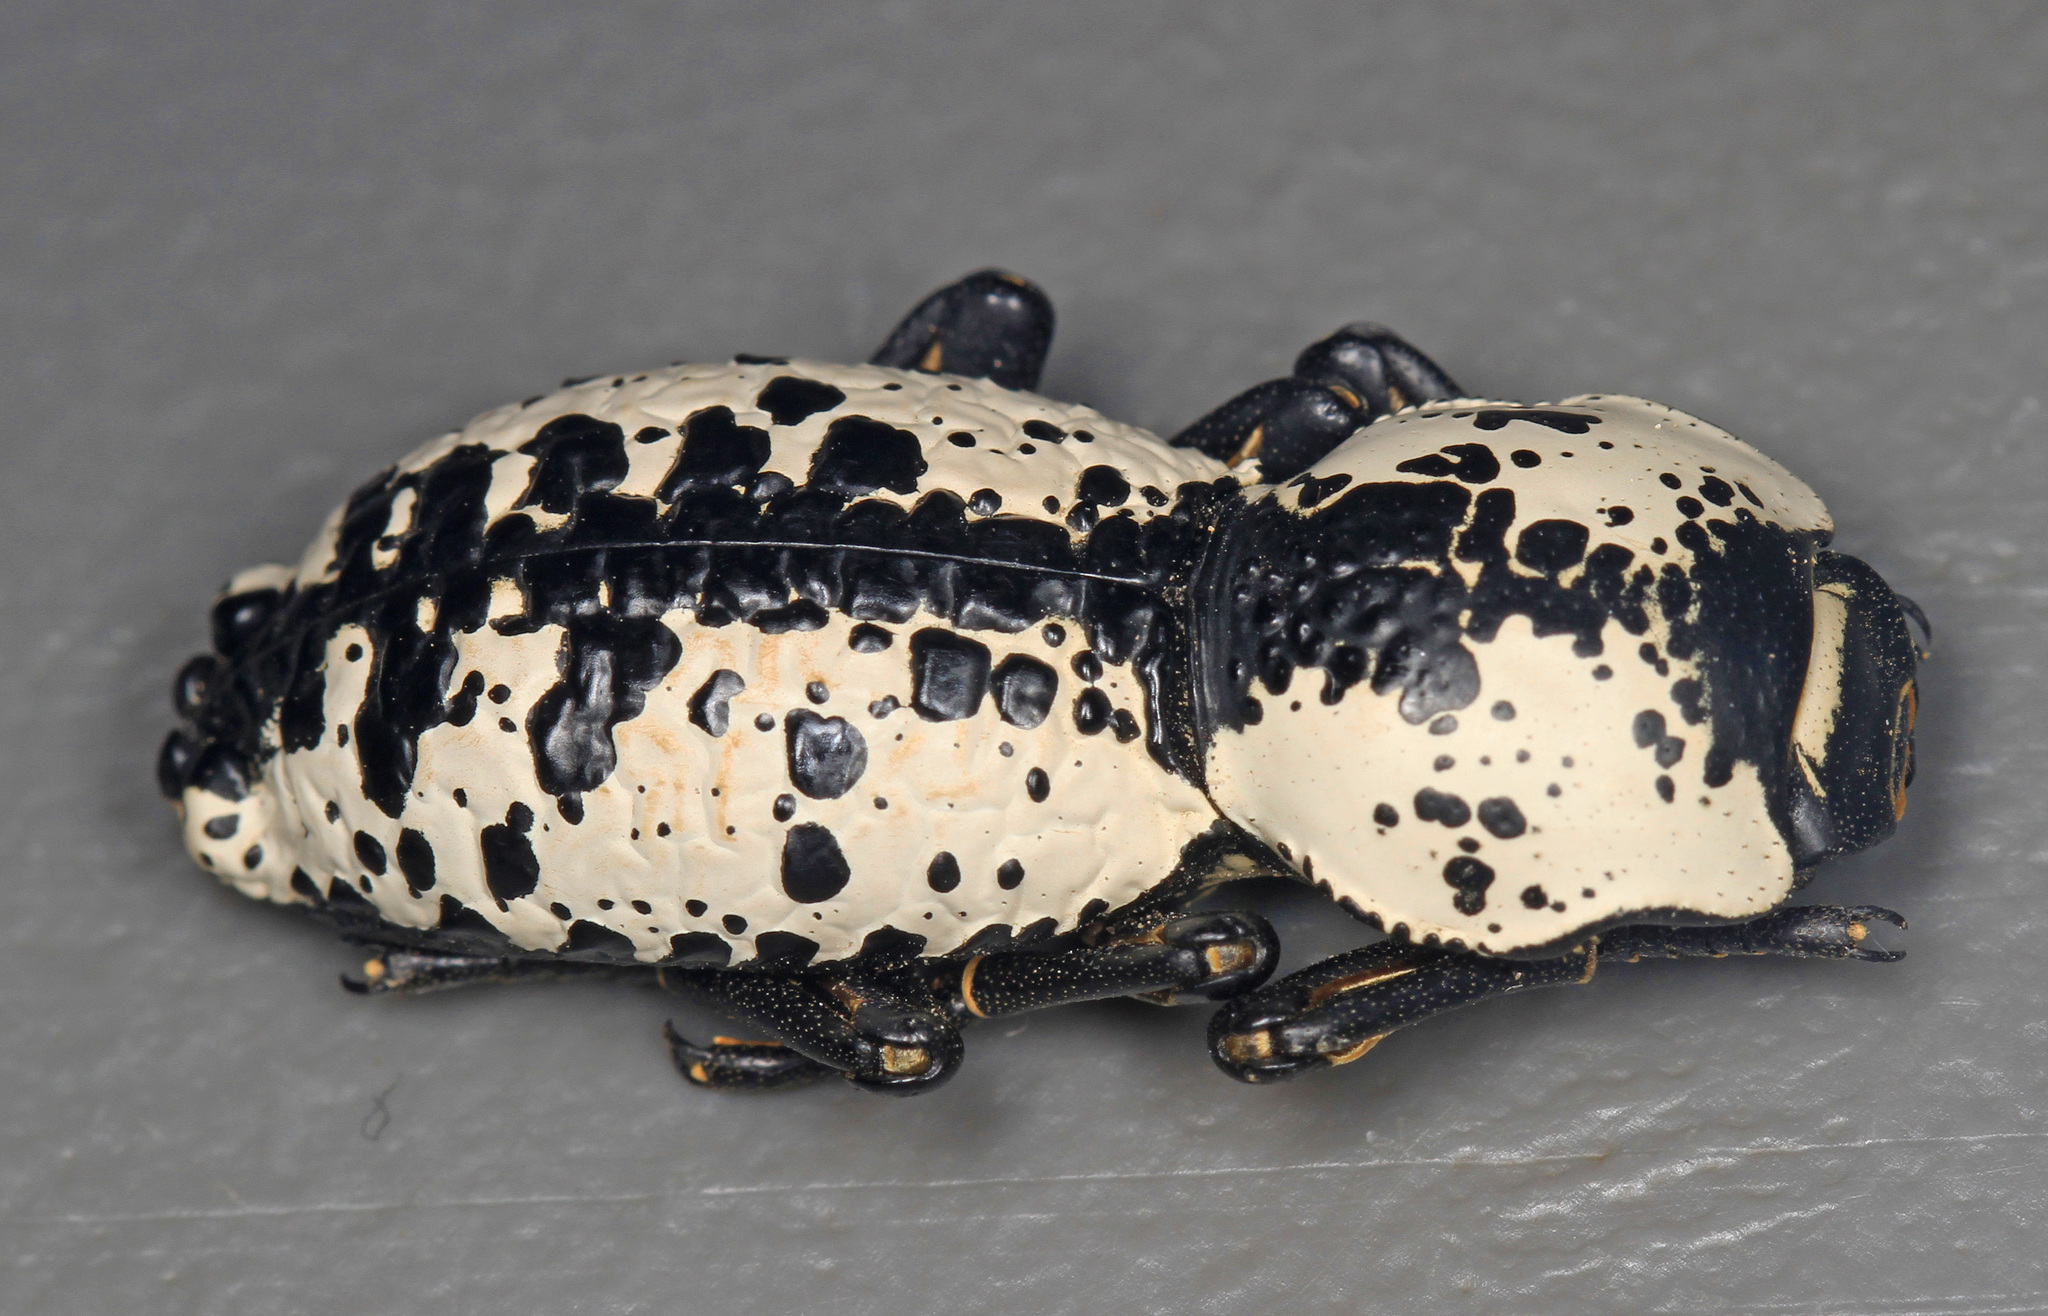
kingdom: Animalia
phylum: Arthropoda
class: Insecta
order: Coleoptera
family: Zopheridae
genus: Zopherus
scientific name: Zopherus nodulosus
